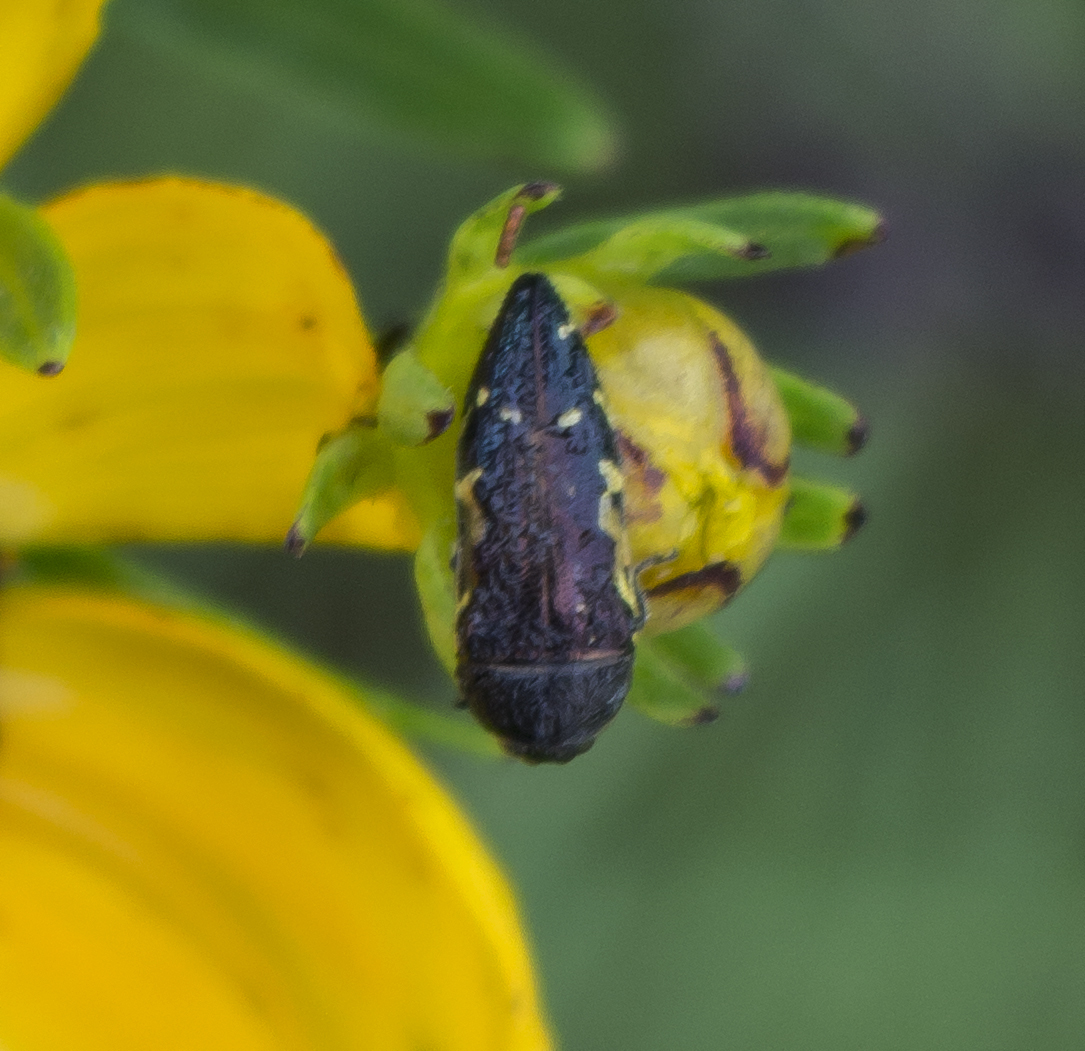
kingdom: Animalia
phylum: Arthropoda
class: Insecta
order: Coleoptera
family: Buprestidae
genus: Acmaeodera
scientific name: Acmaeodera pulchella
